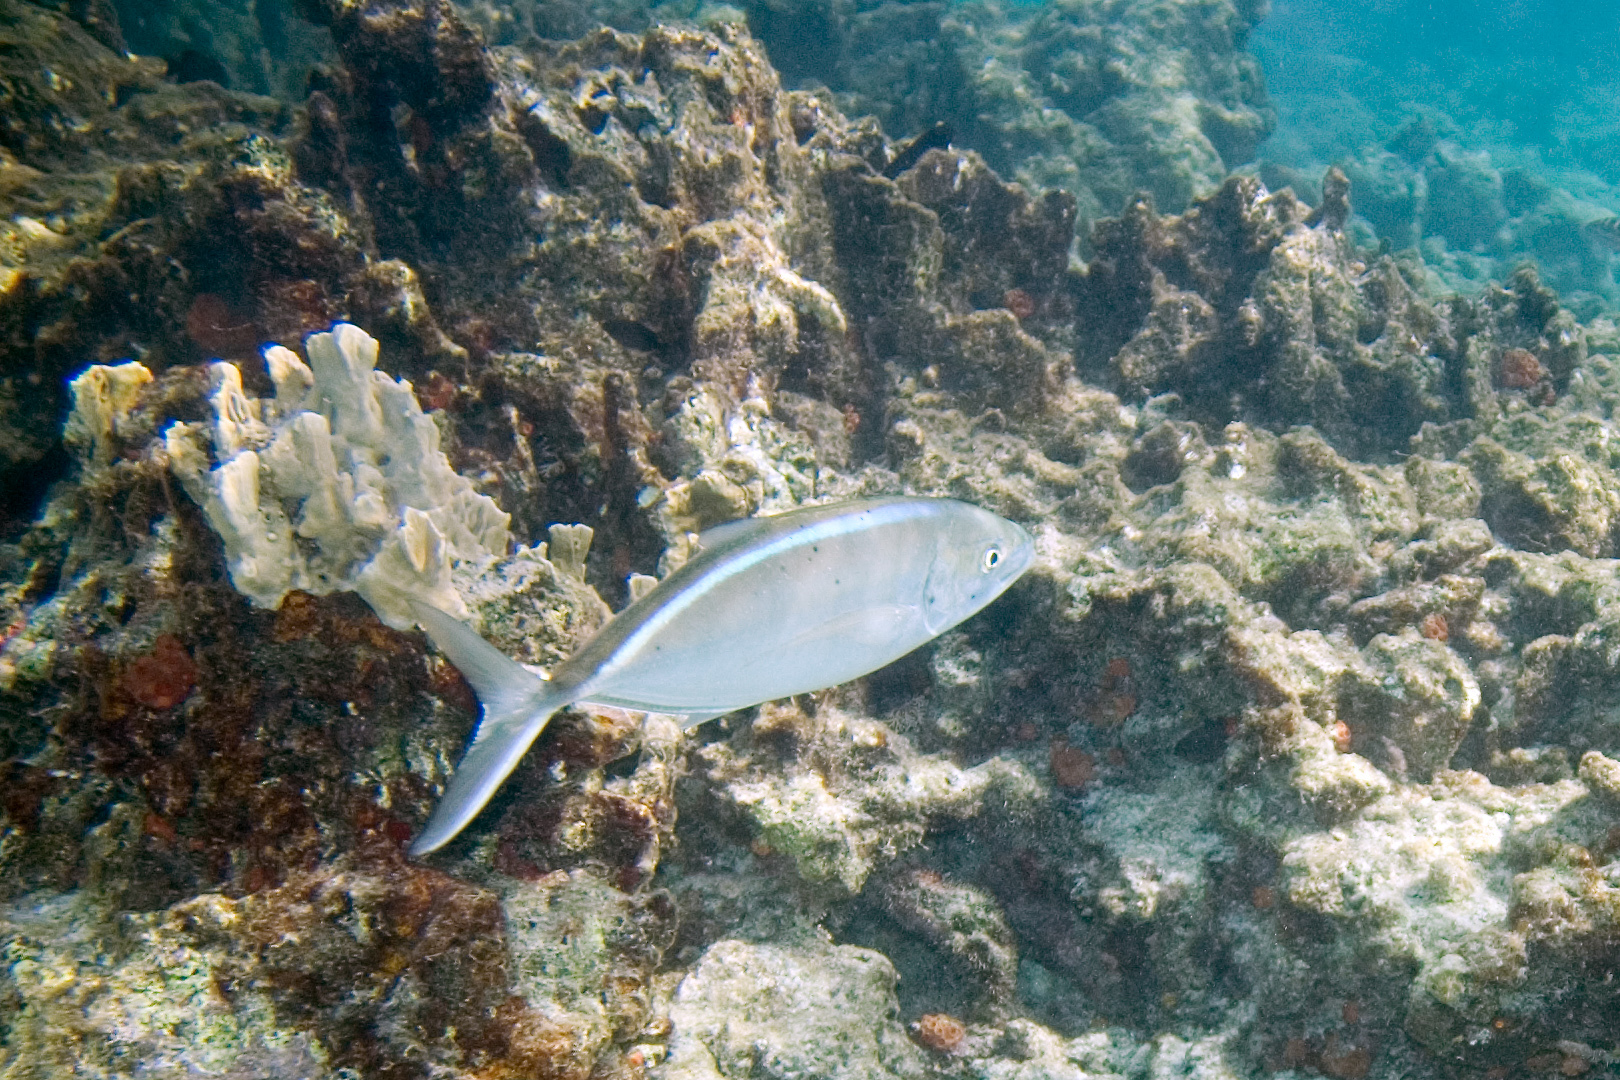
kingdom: Animalia
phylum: Chordata
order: Perciformes
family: Carangidae
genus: Caranx
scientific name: Caranx ruber
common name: Bar jack
